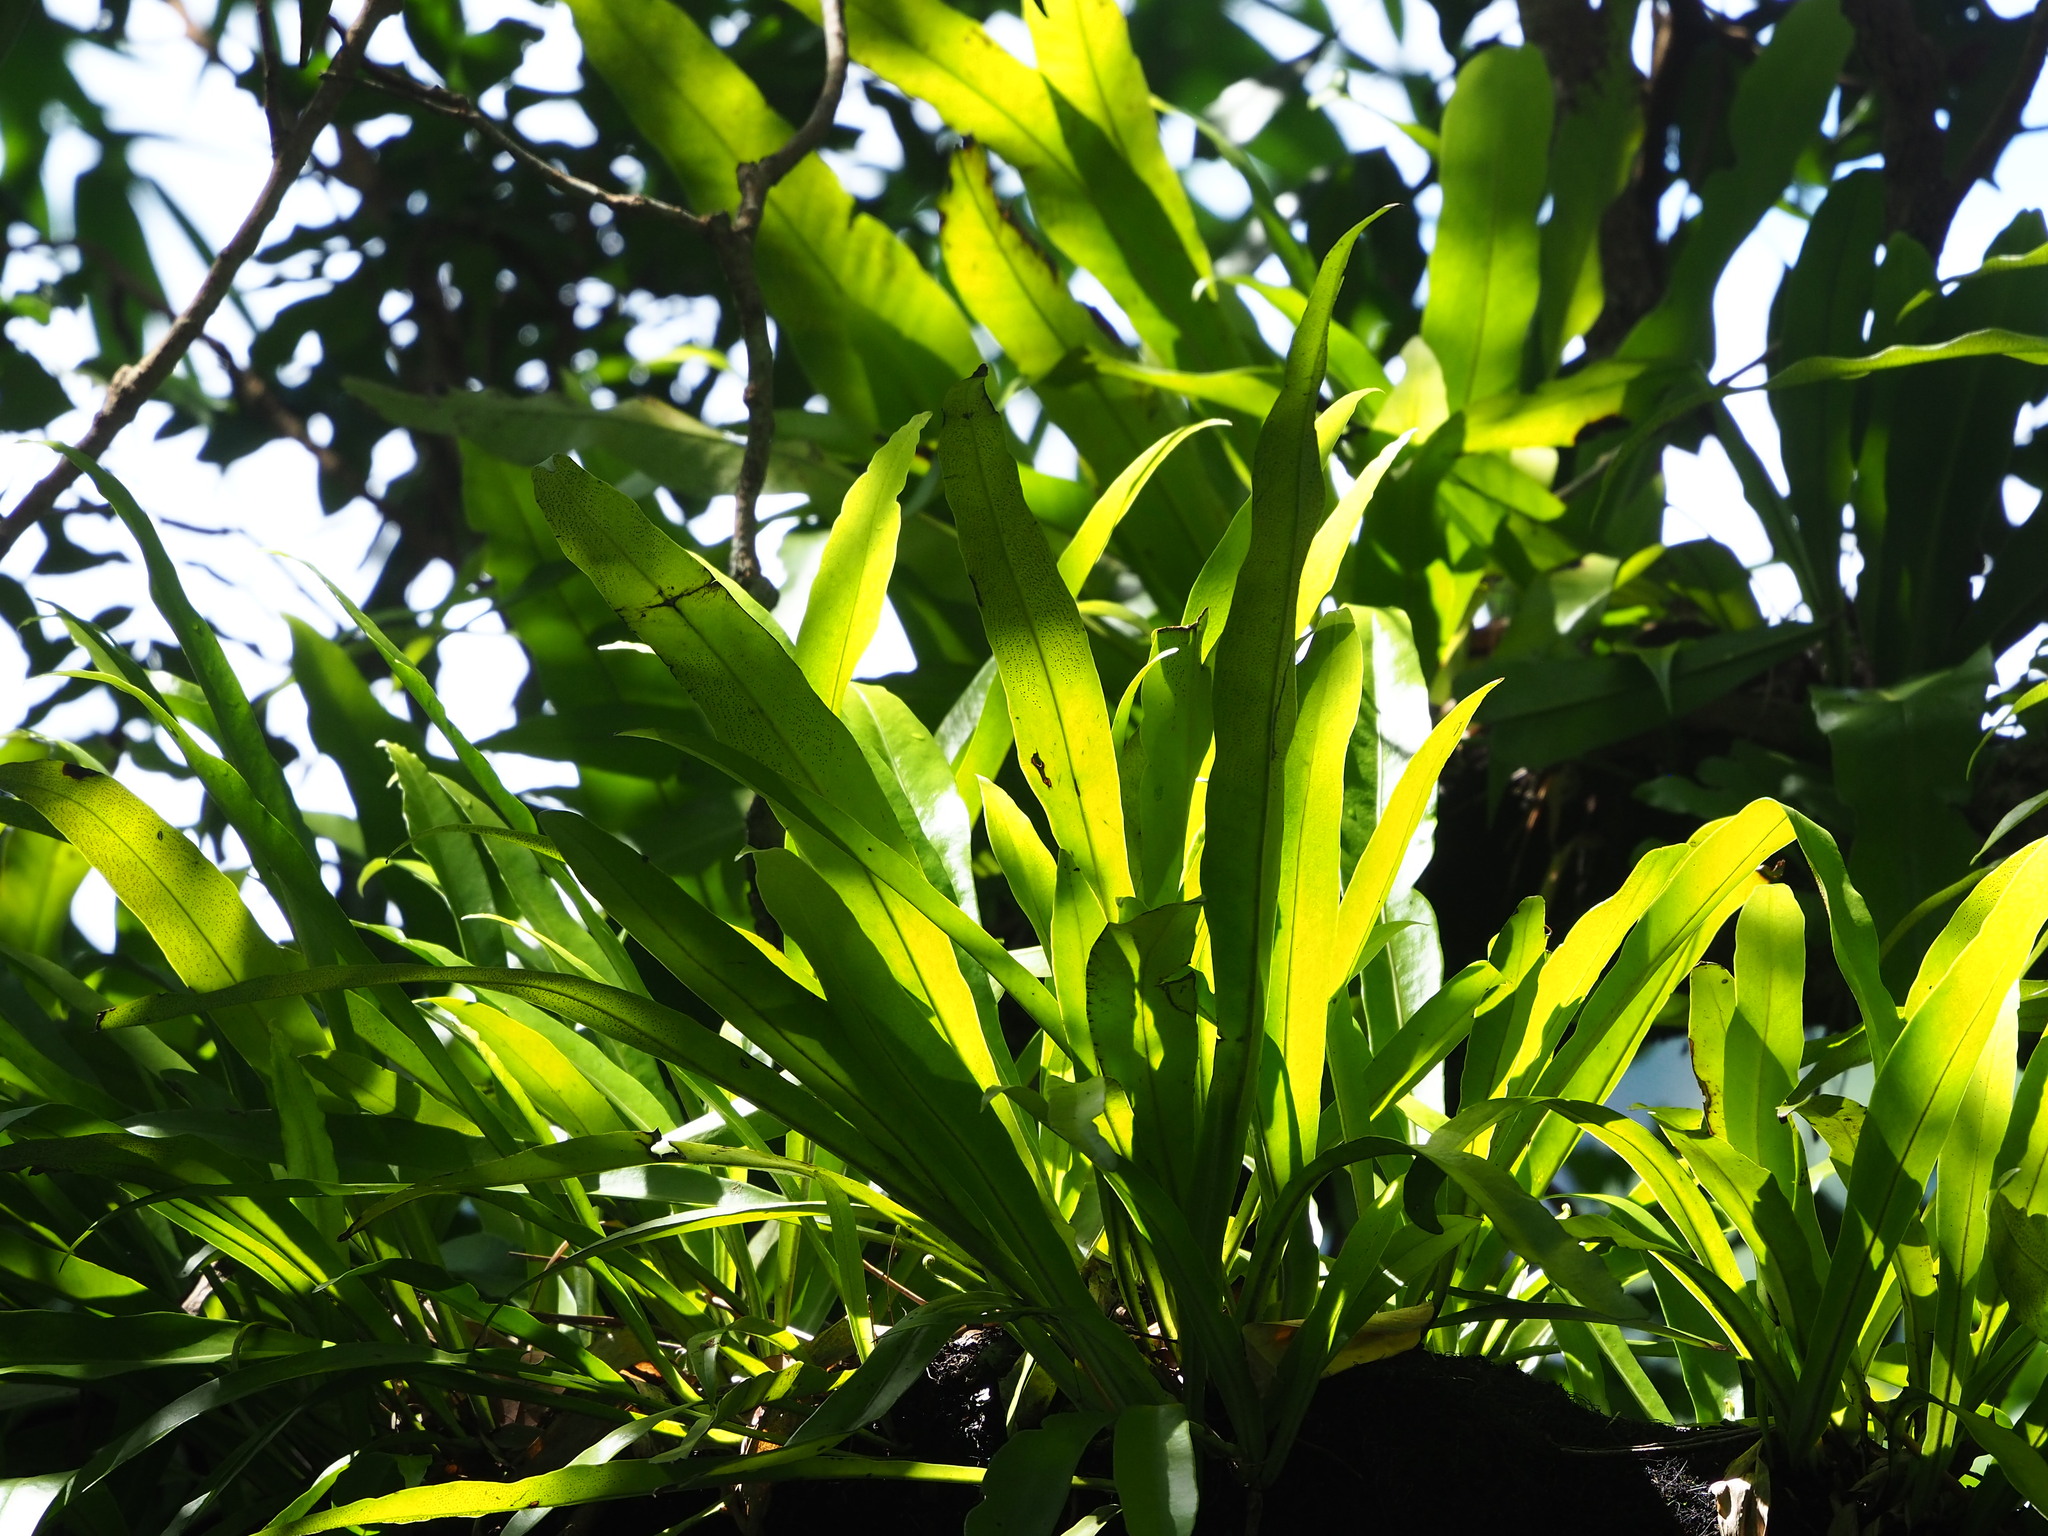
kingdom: Plantae
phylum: Tracheophyta
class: Polypodiopsida
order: Polypodiales
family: Polypodiaceae
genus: Microsorum
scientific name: Microsorum punctatum
